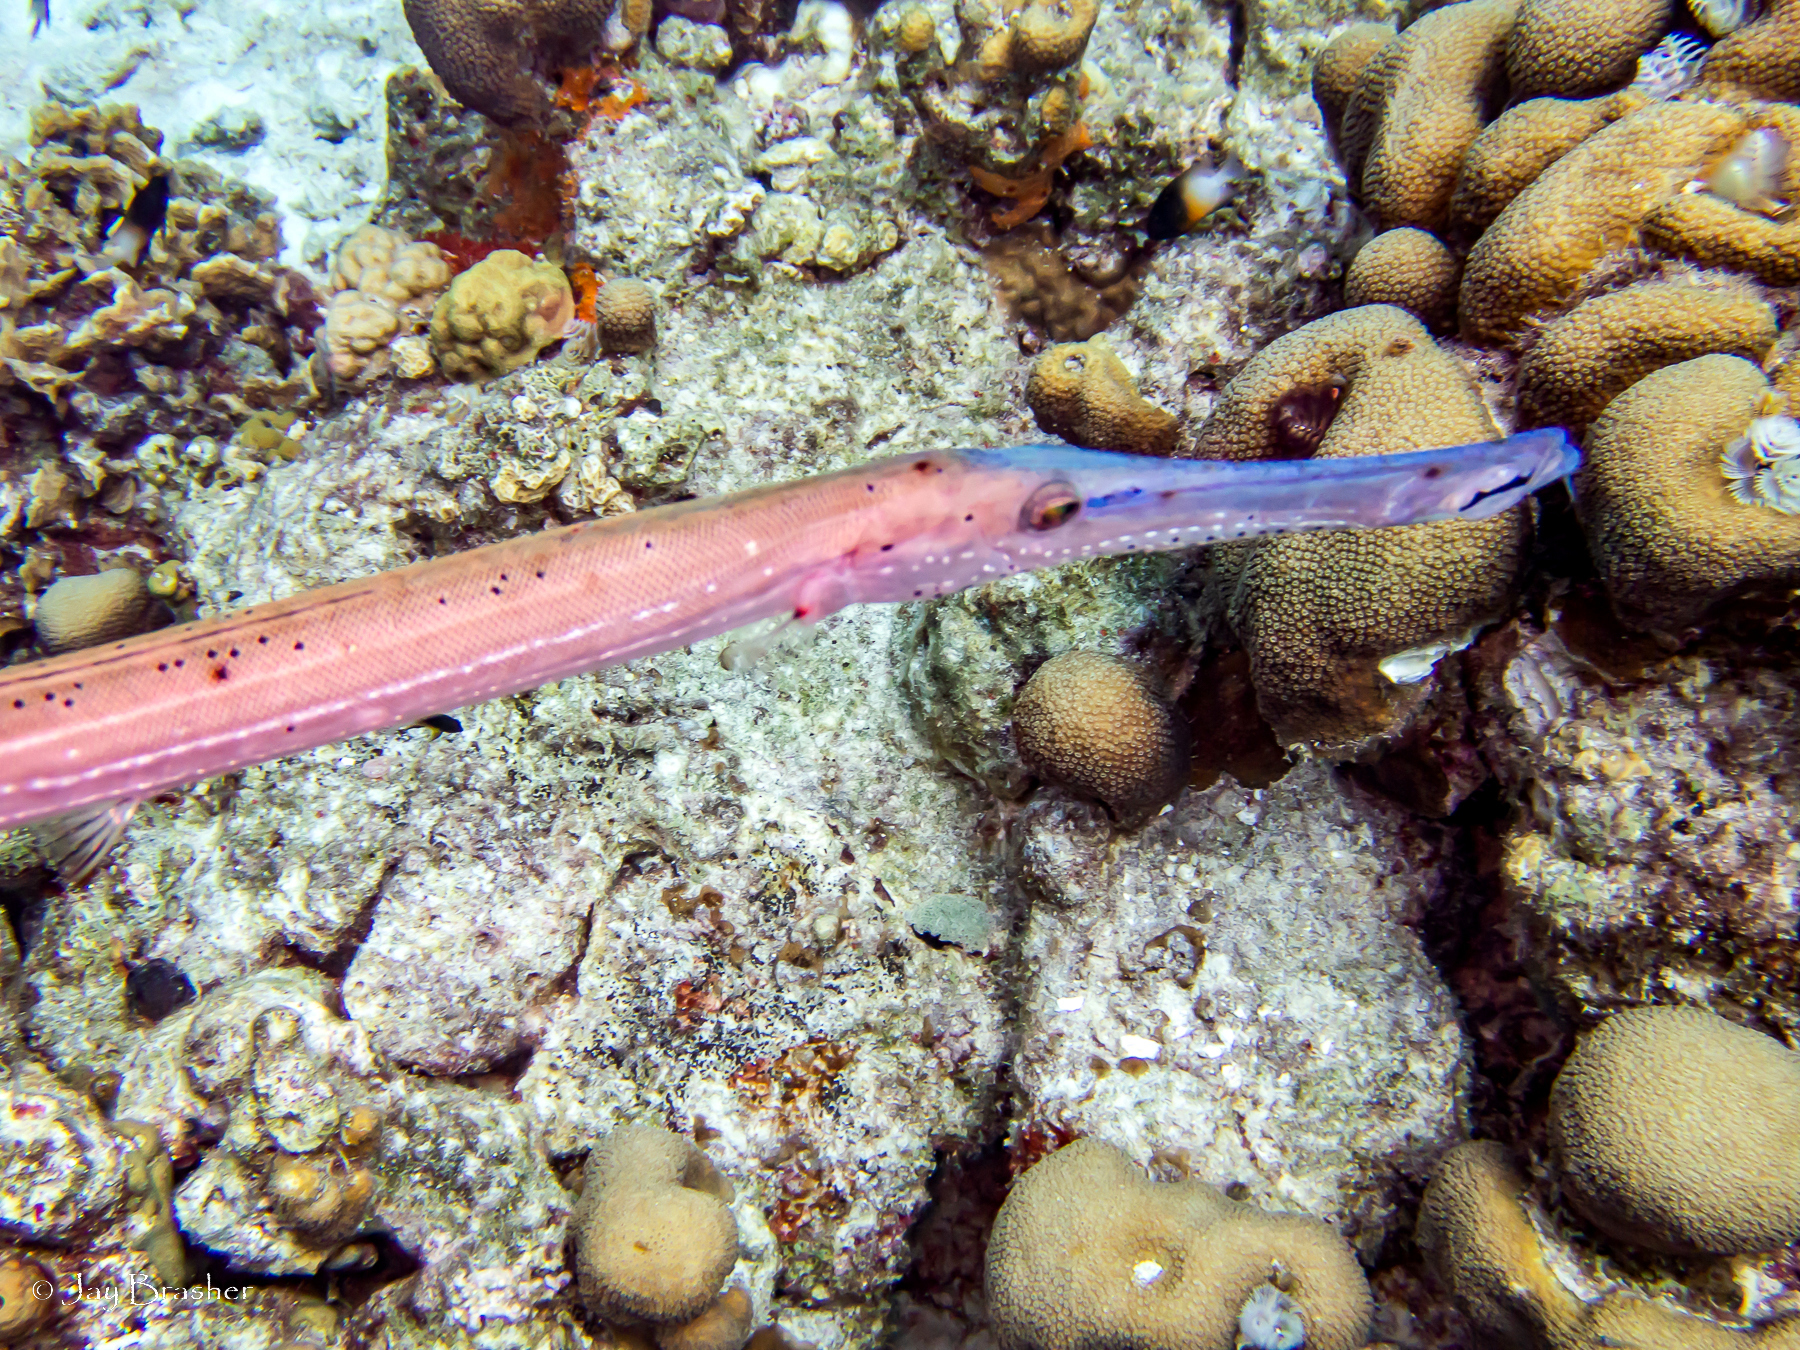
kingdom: Animalia
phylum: Chordata
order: Syngnathiformes
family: Aulostomidae
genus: Aulostomus
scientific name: Aulostomus maculatus
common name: West atlantic trumpetfish
